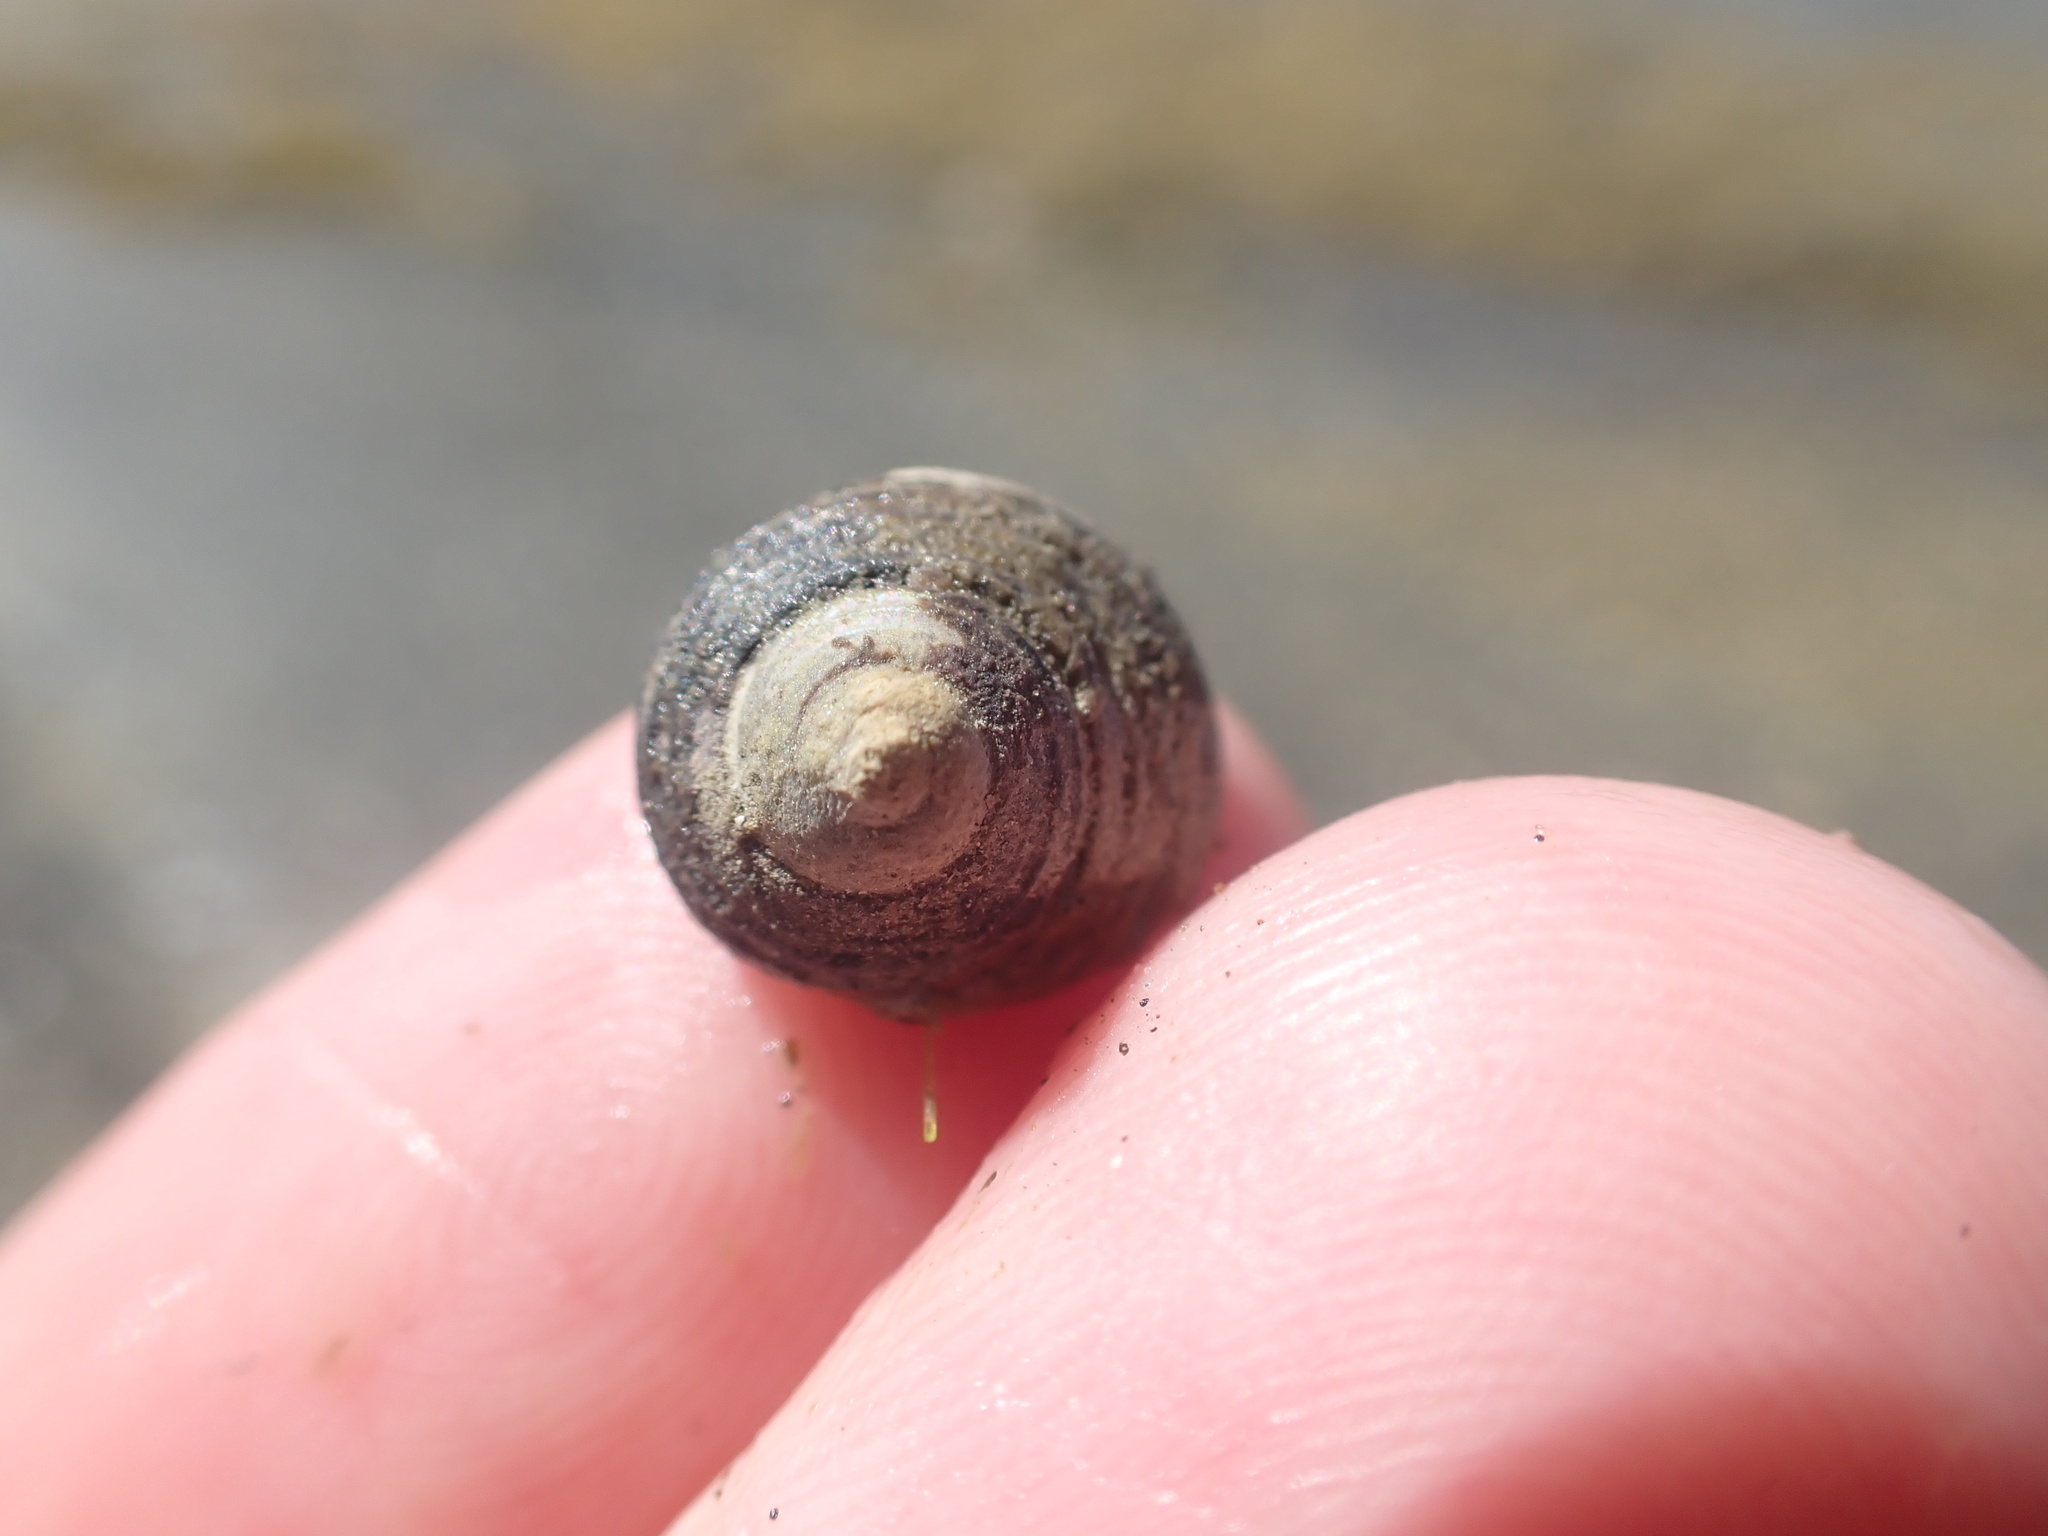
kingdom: Animalia
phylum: Mollusca
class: Gastropoda
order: Trochida
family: Trochidae
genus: Diloma
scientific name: Diloma subrostratum
